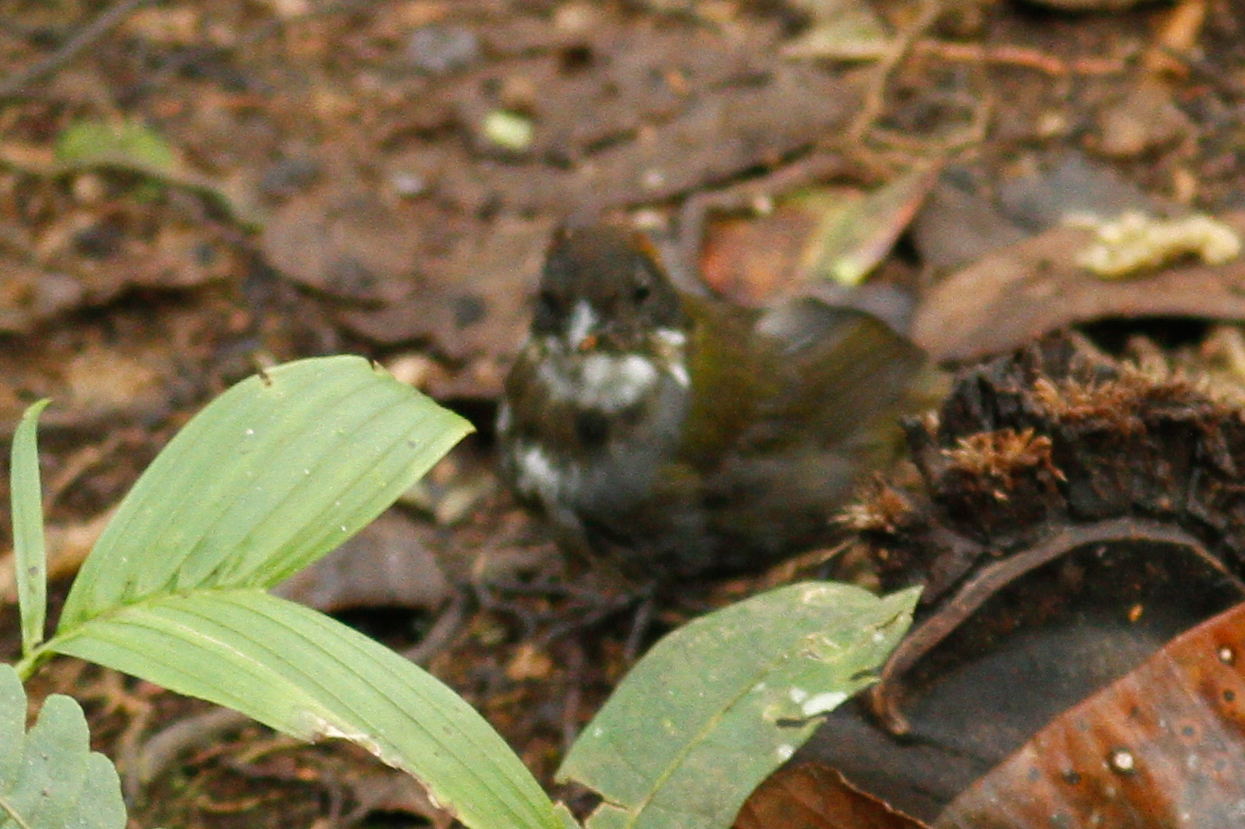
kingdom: Animalia
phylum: Chordata
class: Aves
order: Passeriformes
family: Passerellidae
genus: Arremon
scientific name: Arremon brunneinucha
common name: Chestnut-capped brushfinch
